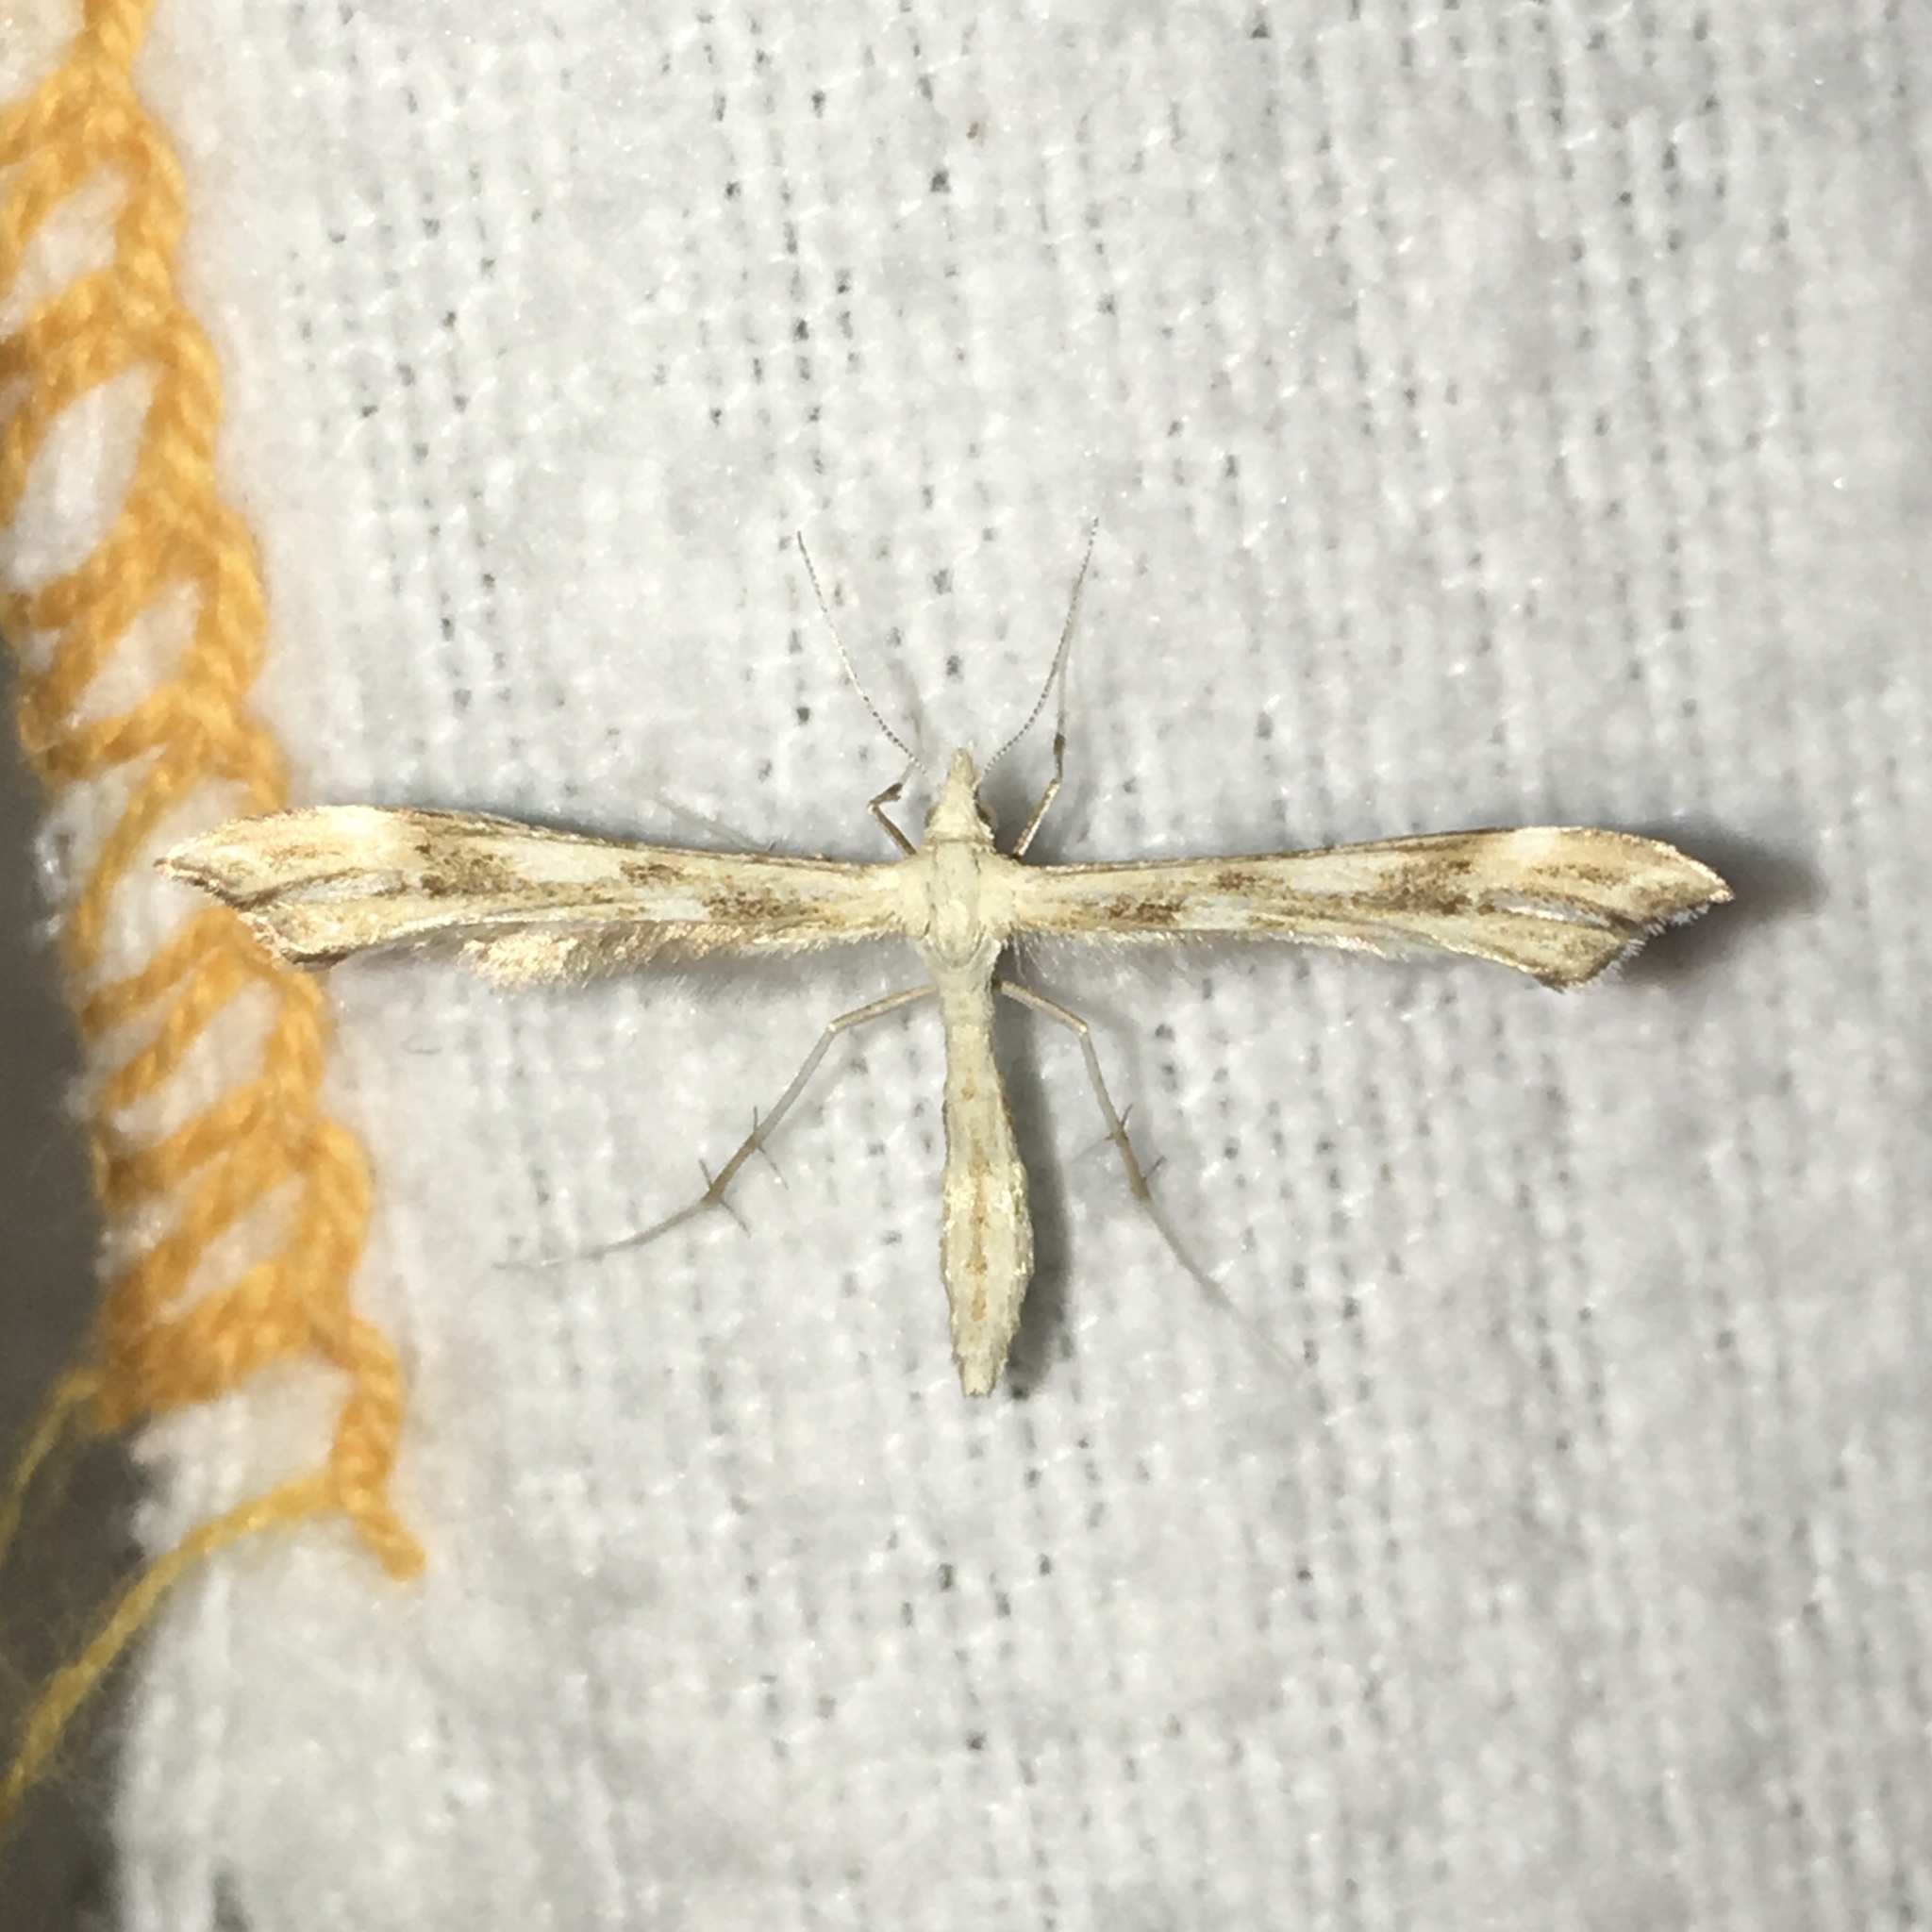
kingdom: Animalia
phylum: Arthropoda
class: Insecta
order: Lepidoptera
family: Pterophoridae
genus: Gillmeria
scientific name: Gillmeria pallidactyla
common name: Yarrow plume
